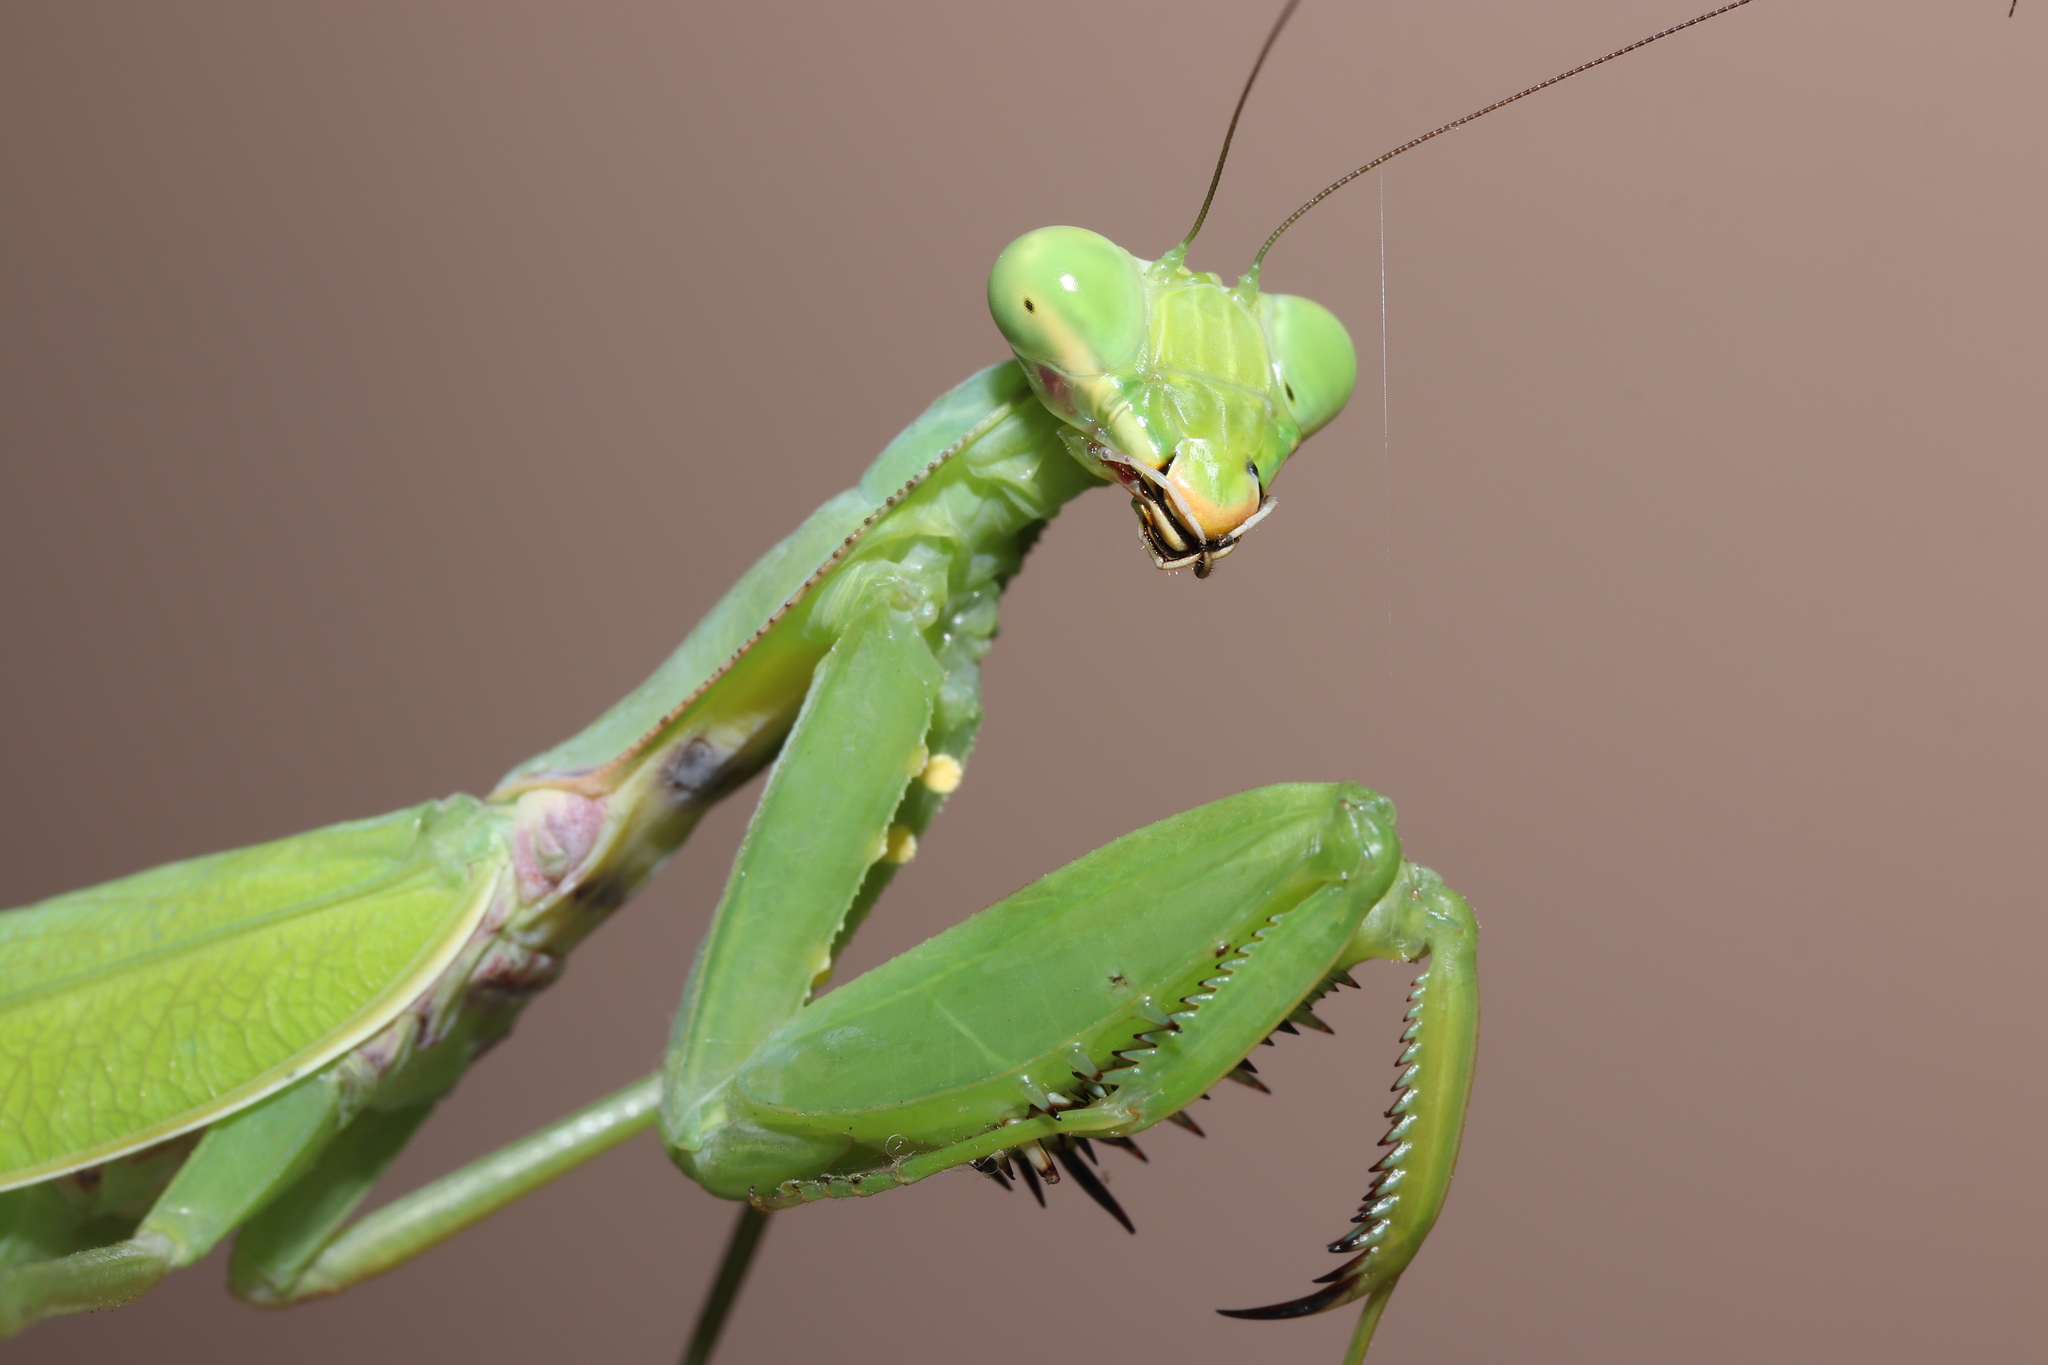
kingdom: Animalia
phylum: Arthropoda
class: Insecta
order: Mantodea
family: Mantidae
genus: Hierodula
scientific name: Hierodula patellifera
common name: Asian mantis
